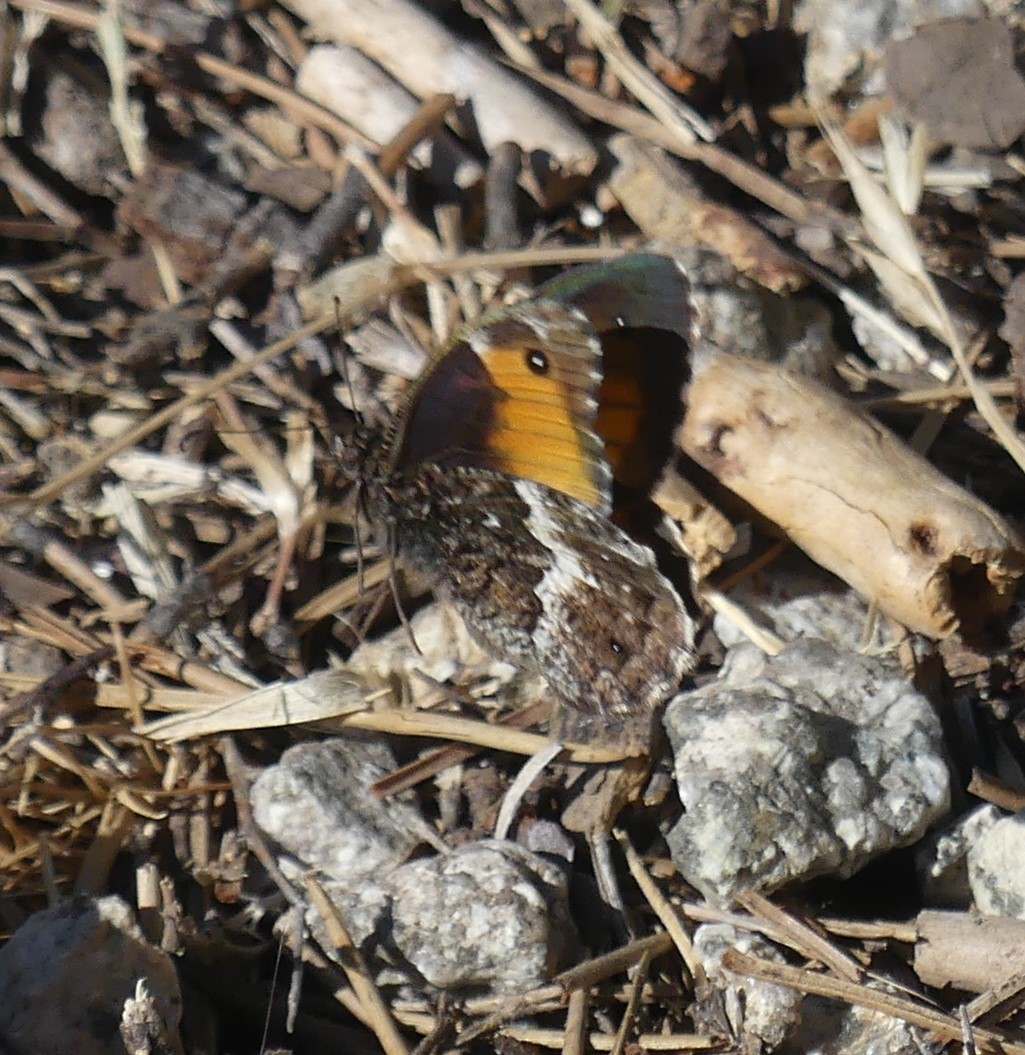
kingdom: Animalia
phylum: Arthropoda
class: Insecta
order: Lepidoptera
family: Nymphalidae
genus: Hipparchia
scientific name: Hipparchia neomiris
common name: Corsican grayling
